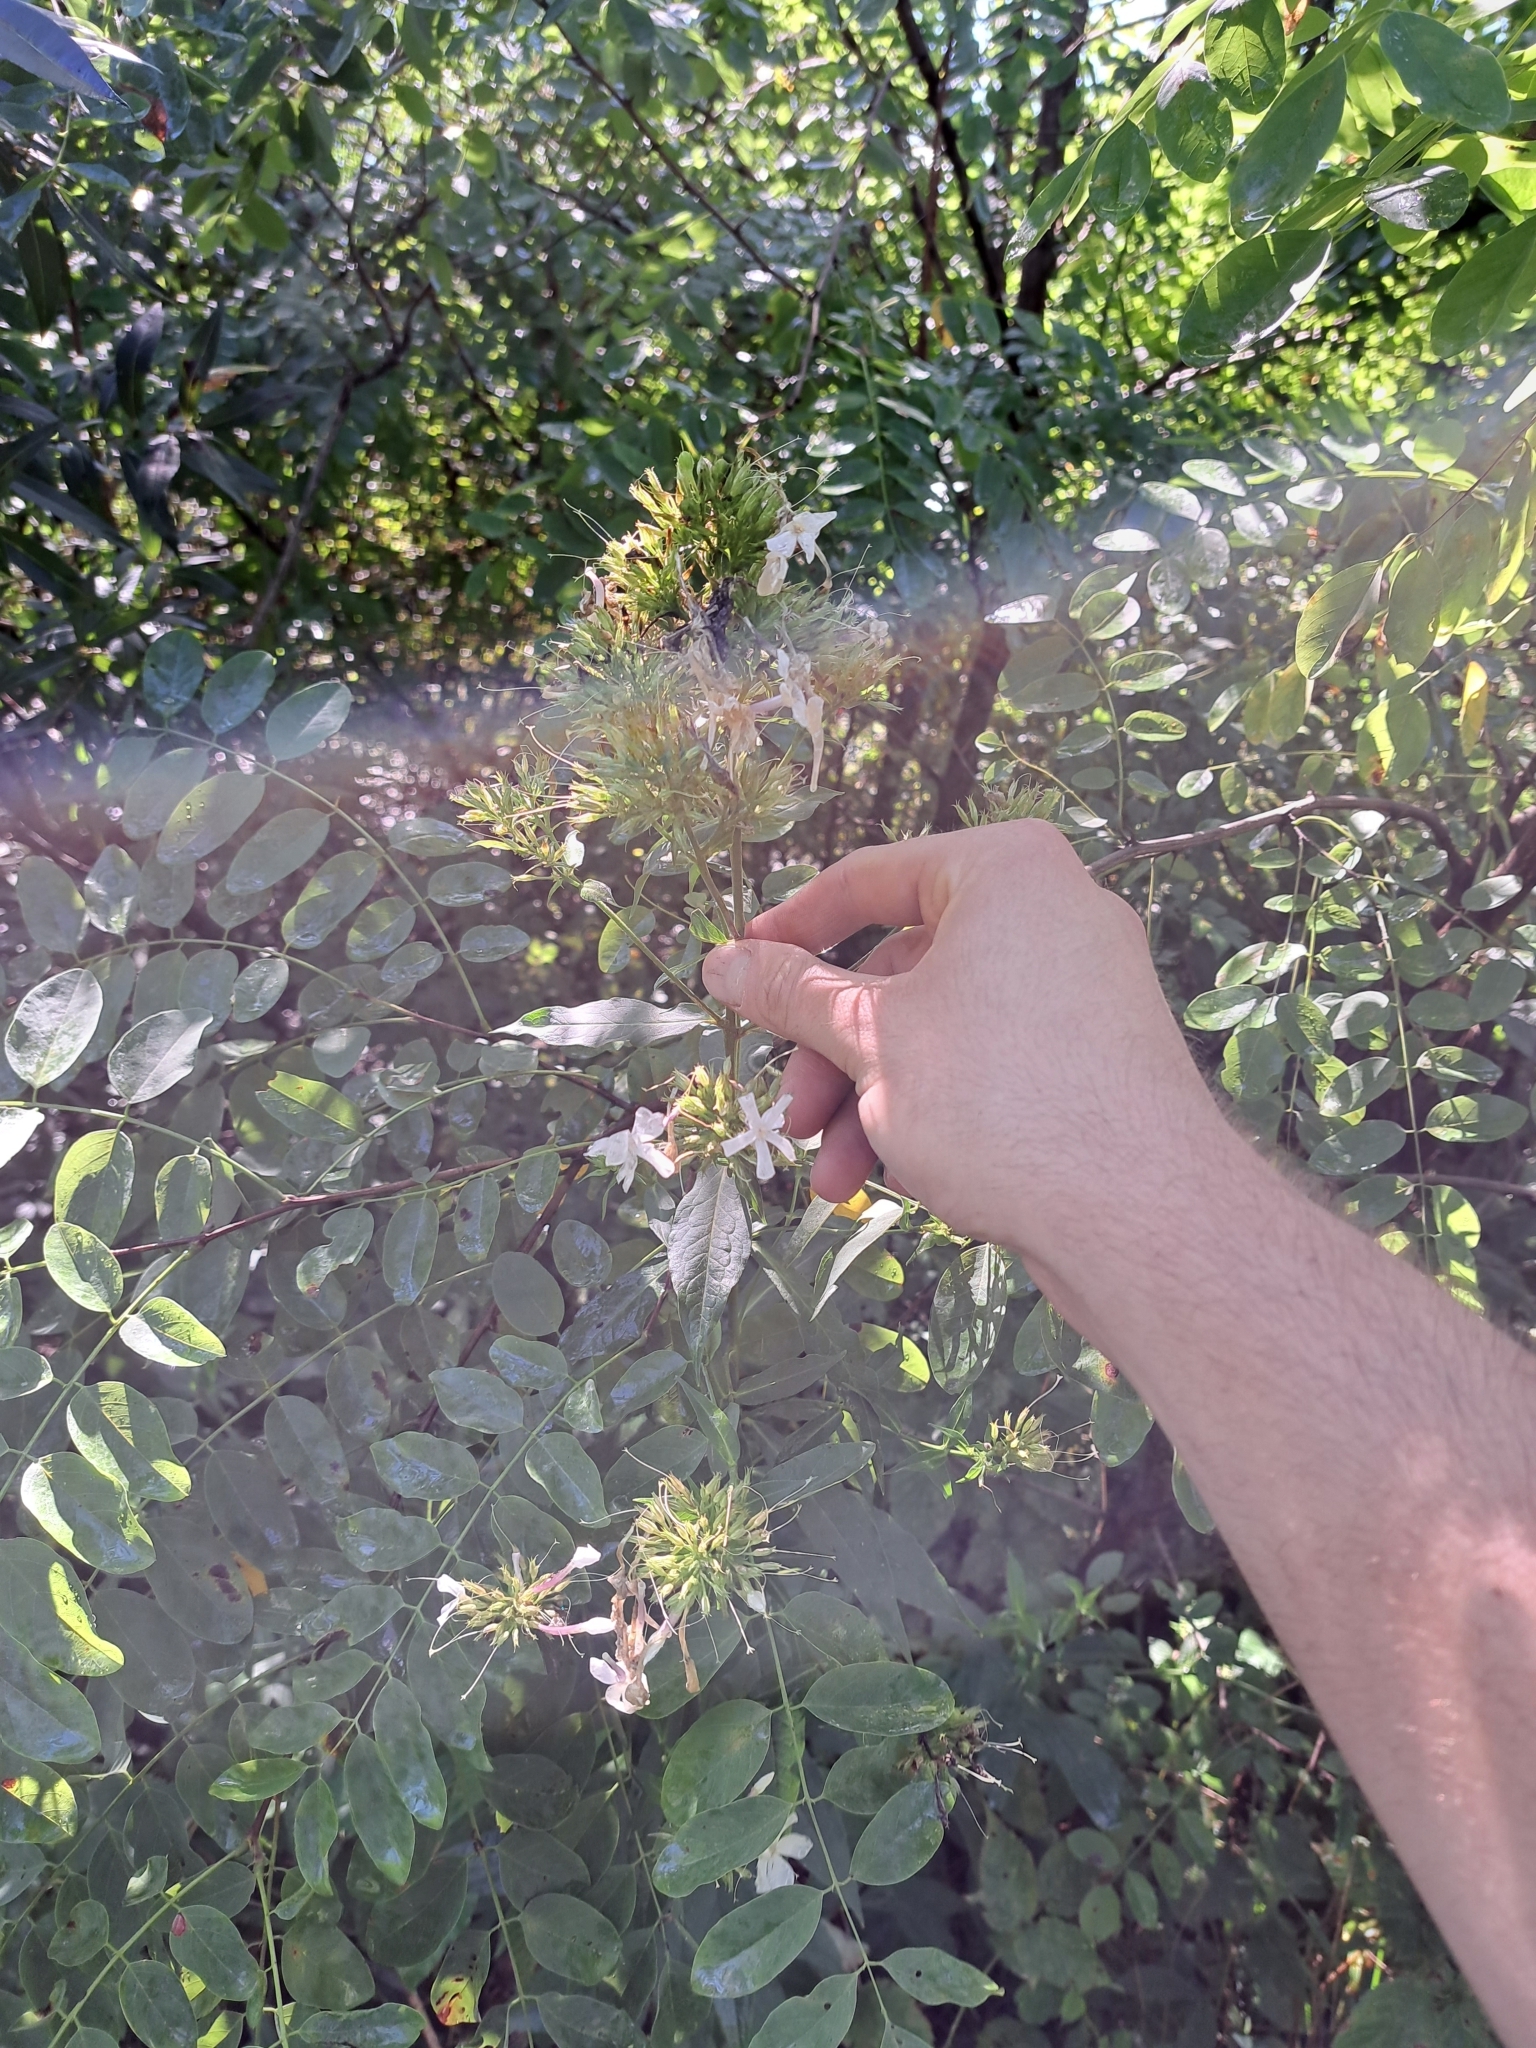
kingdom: Plantae
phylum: Tracheophyta
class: Magnoliopsida
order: Caryophyllales
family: Caryophyllaceae
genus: Saponaria
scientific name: Saponaria officinalis
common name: Soapwort
